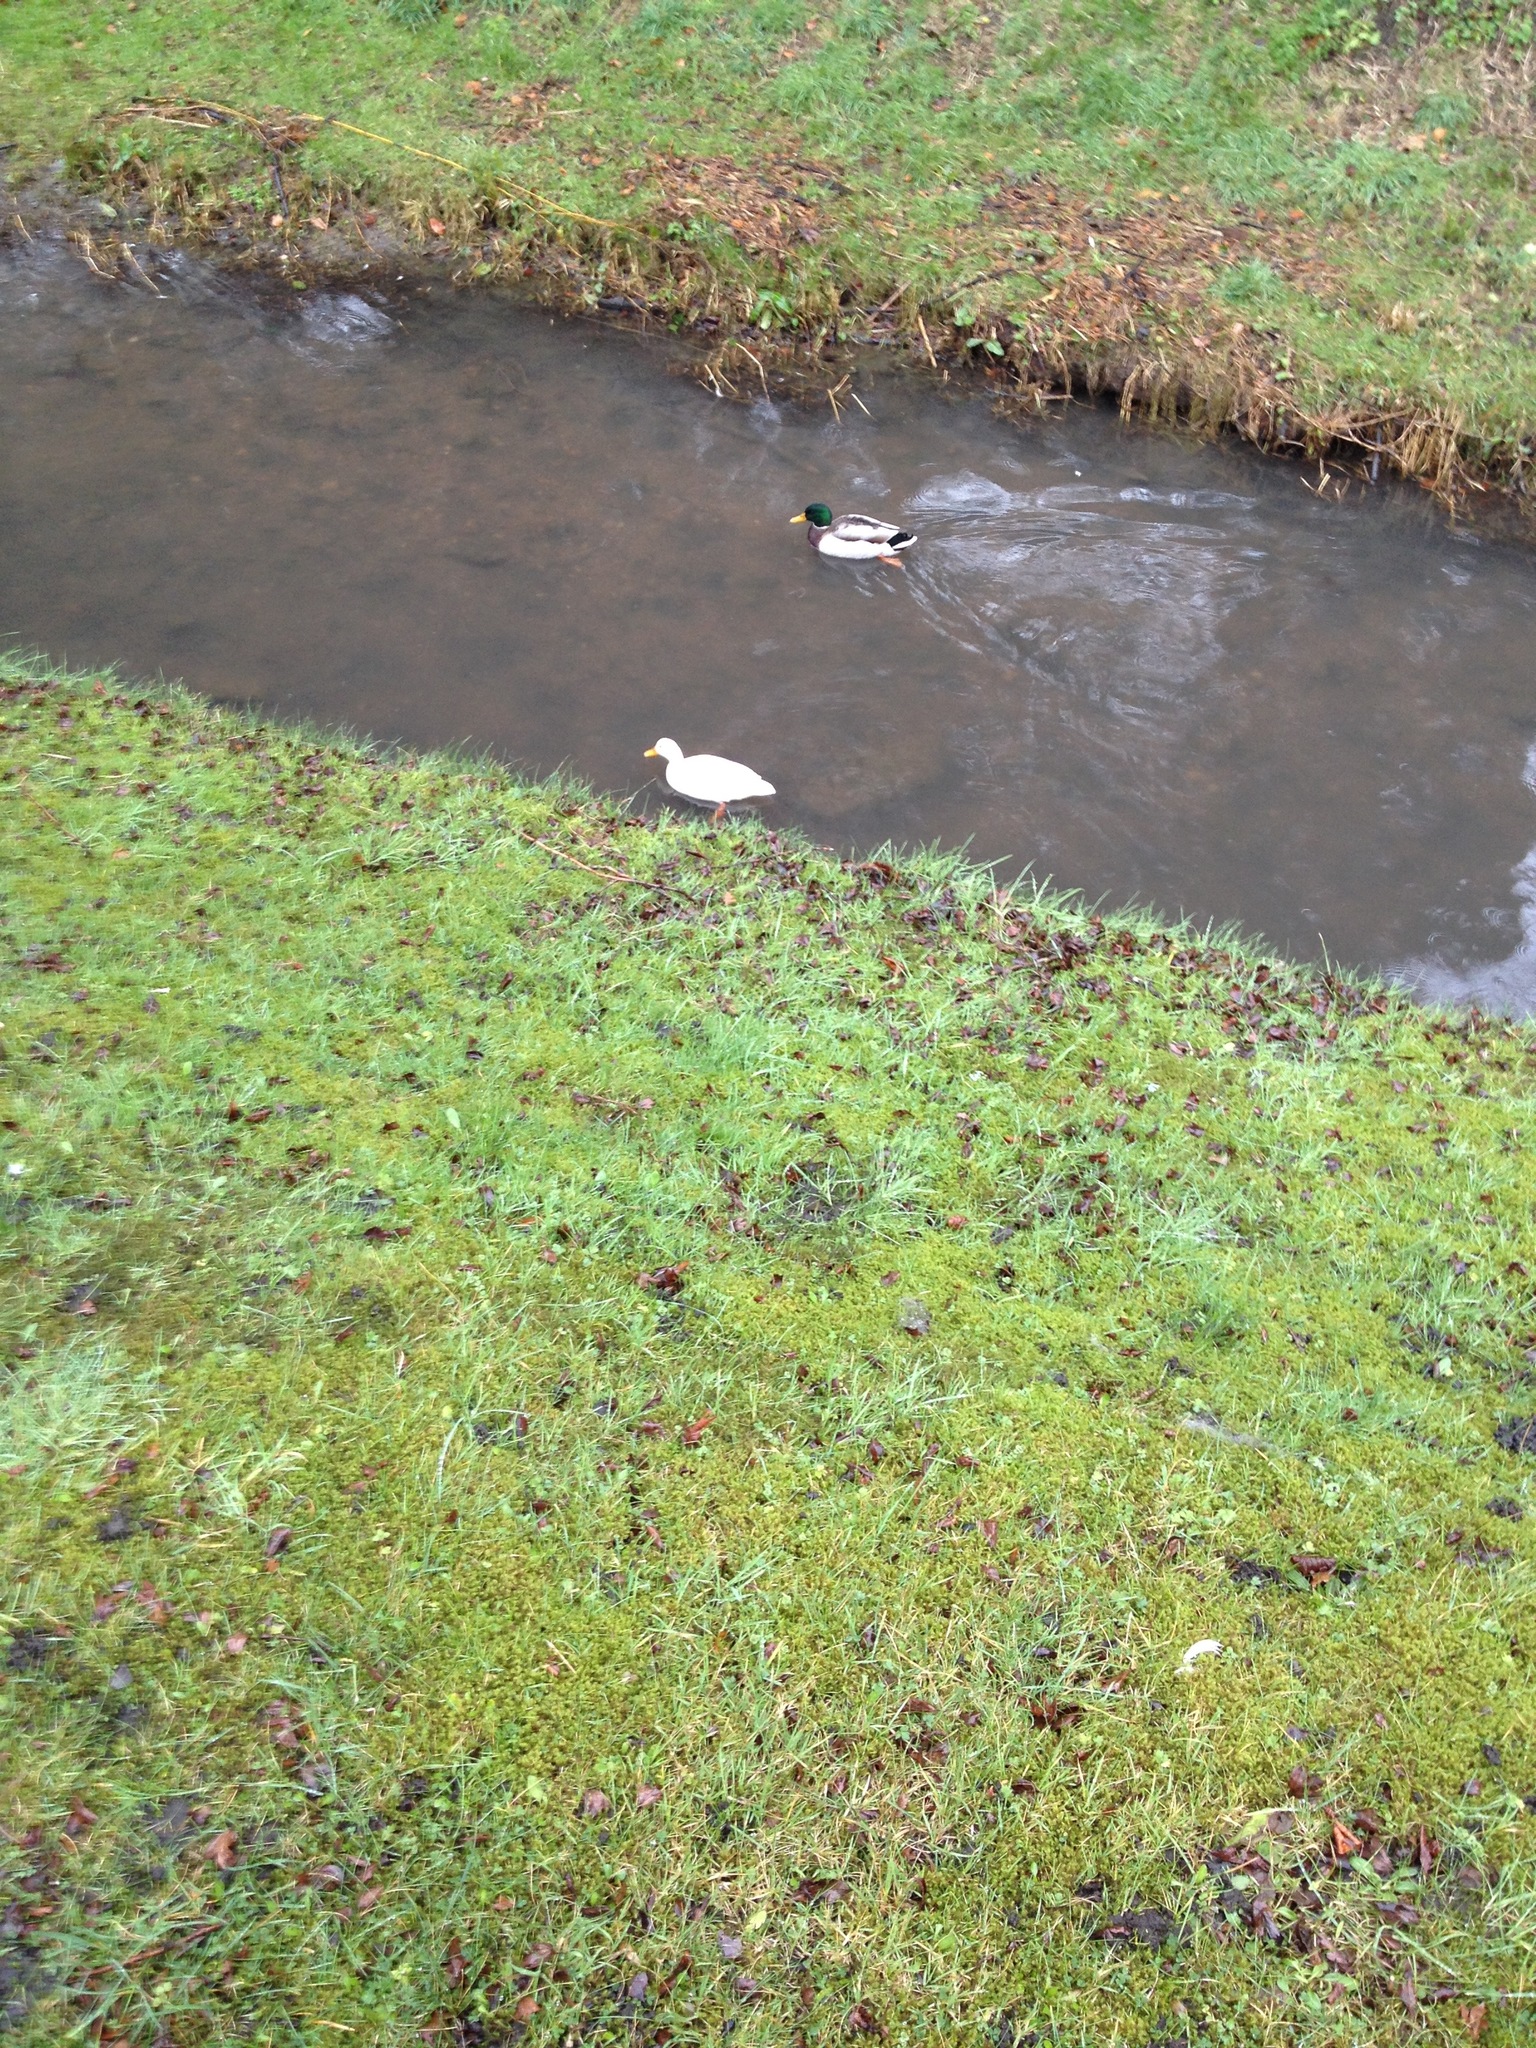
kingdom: Animalia
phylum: Chordata
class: Aves
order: Anseriformes
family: Anatidae
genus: Anas
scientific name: Anas platyrhynchos
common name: Mallard
